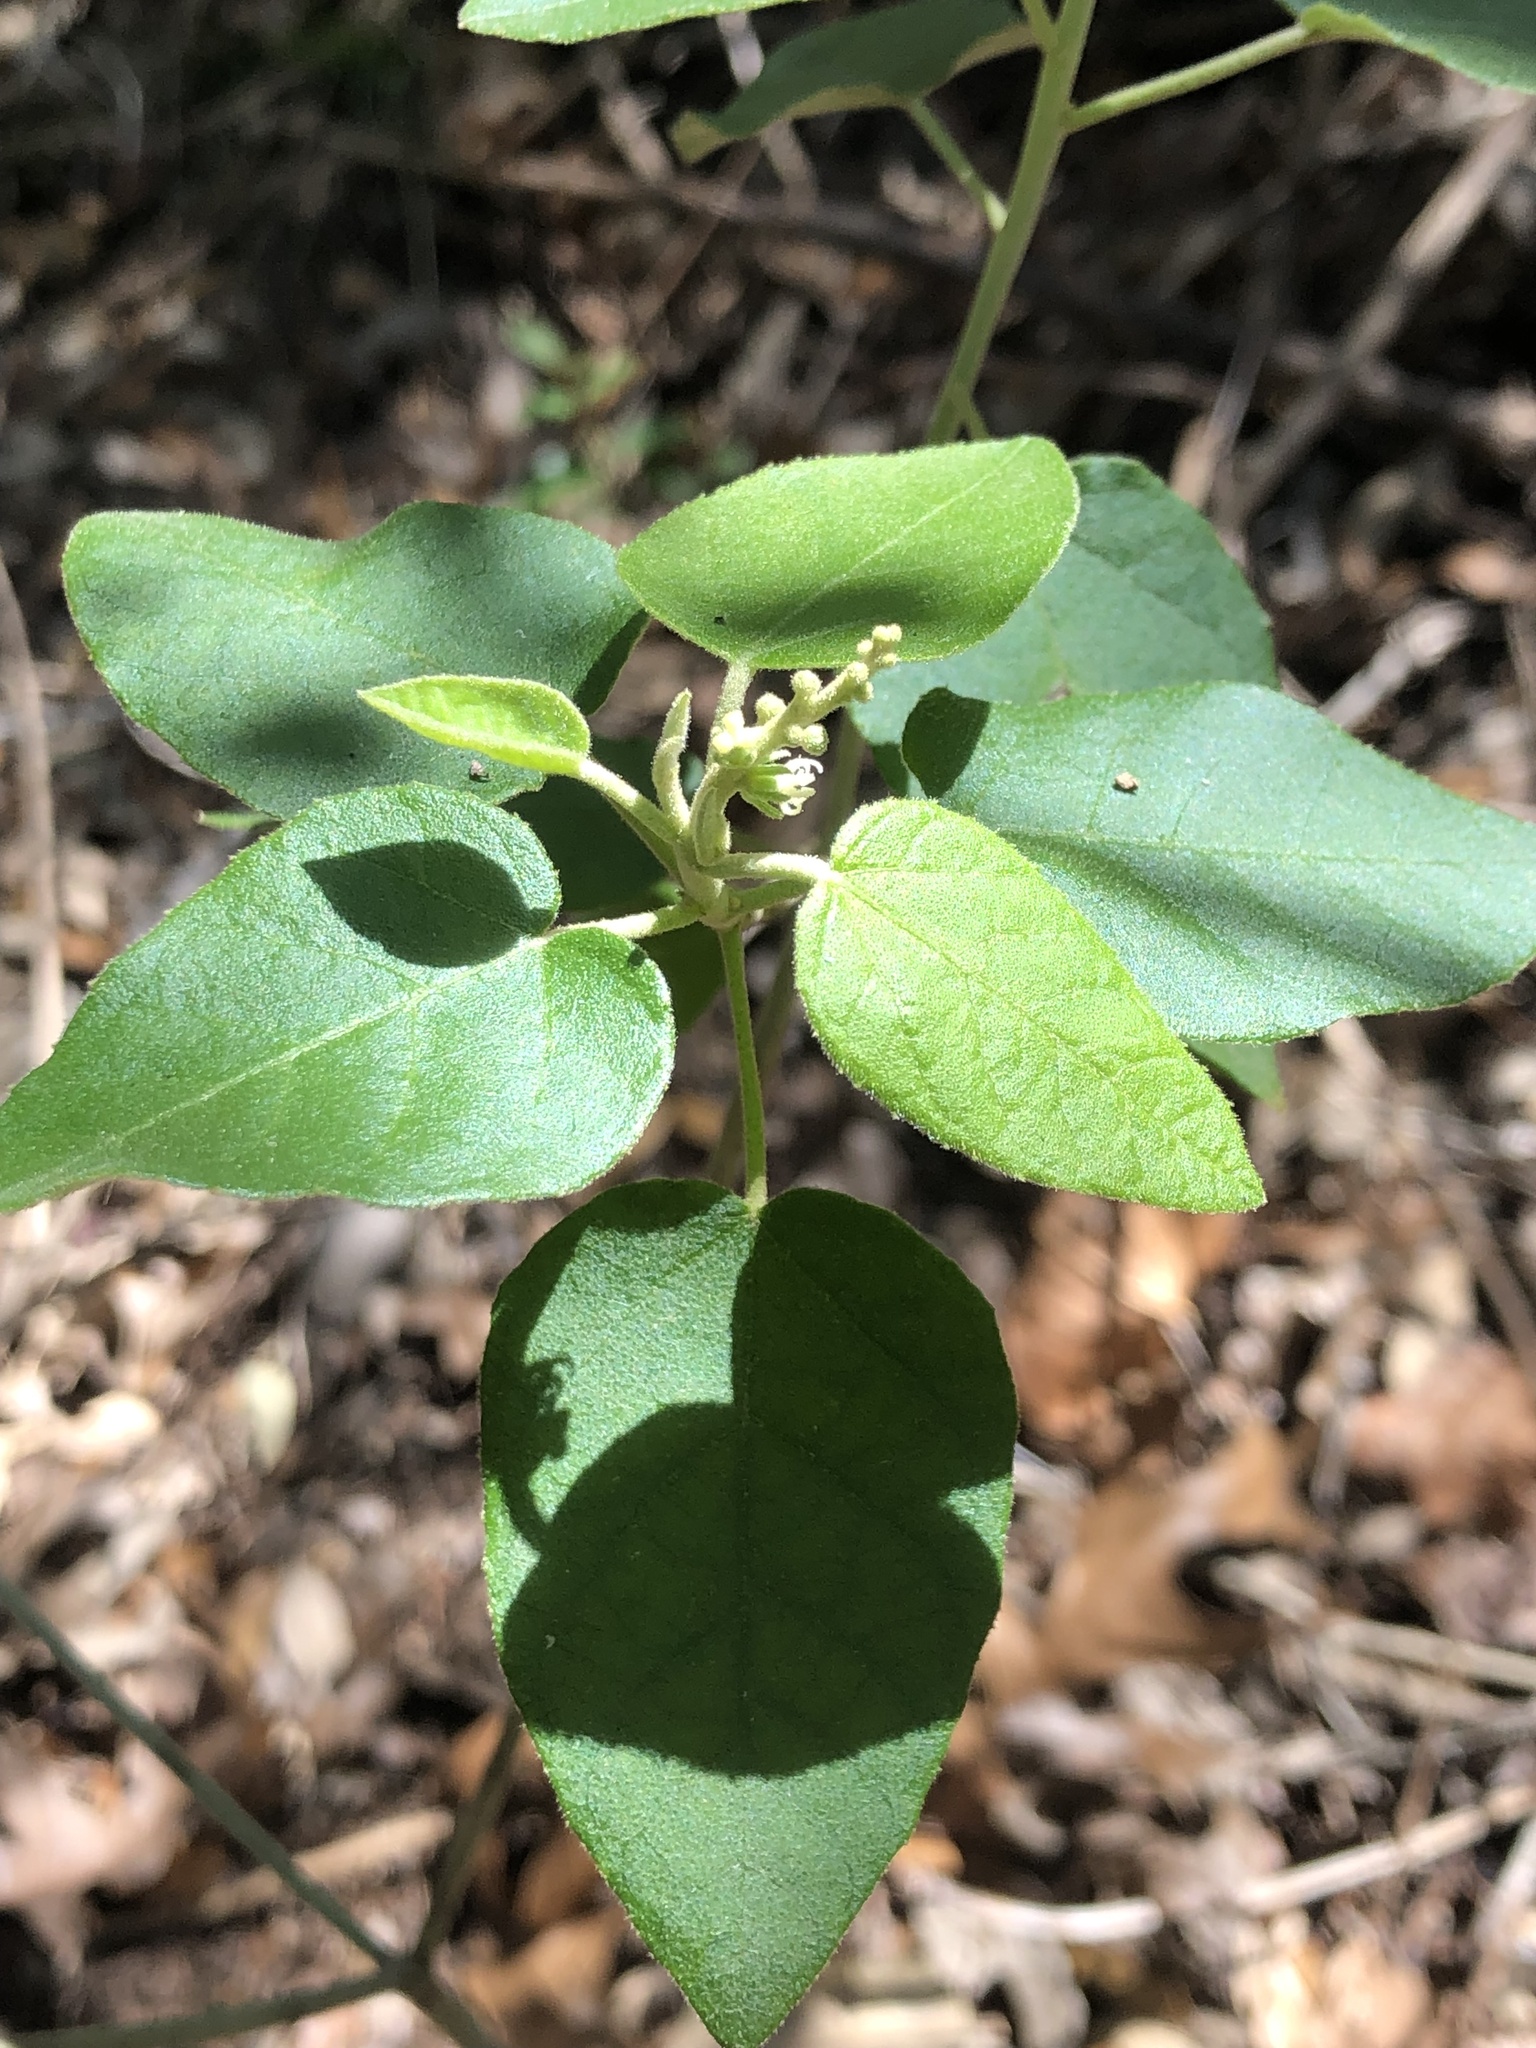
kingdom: Plantae
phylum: Tracheophyta
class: Magnoliopsida
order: Malpighiales
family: Euphorbiaceae
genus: Croton
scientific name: Croton fruticulosus
